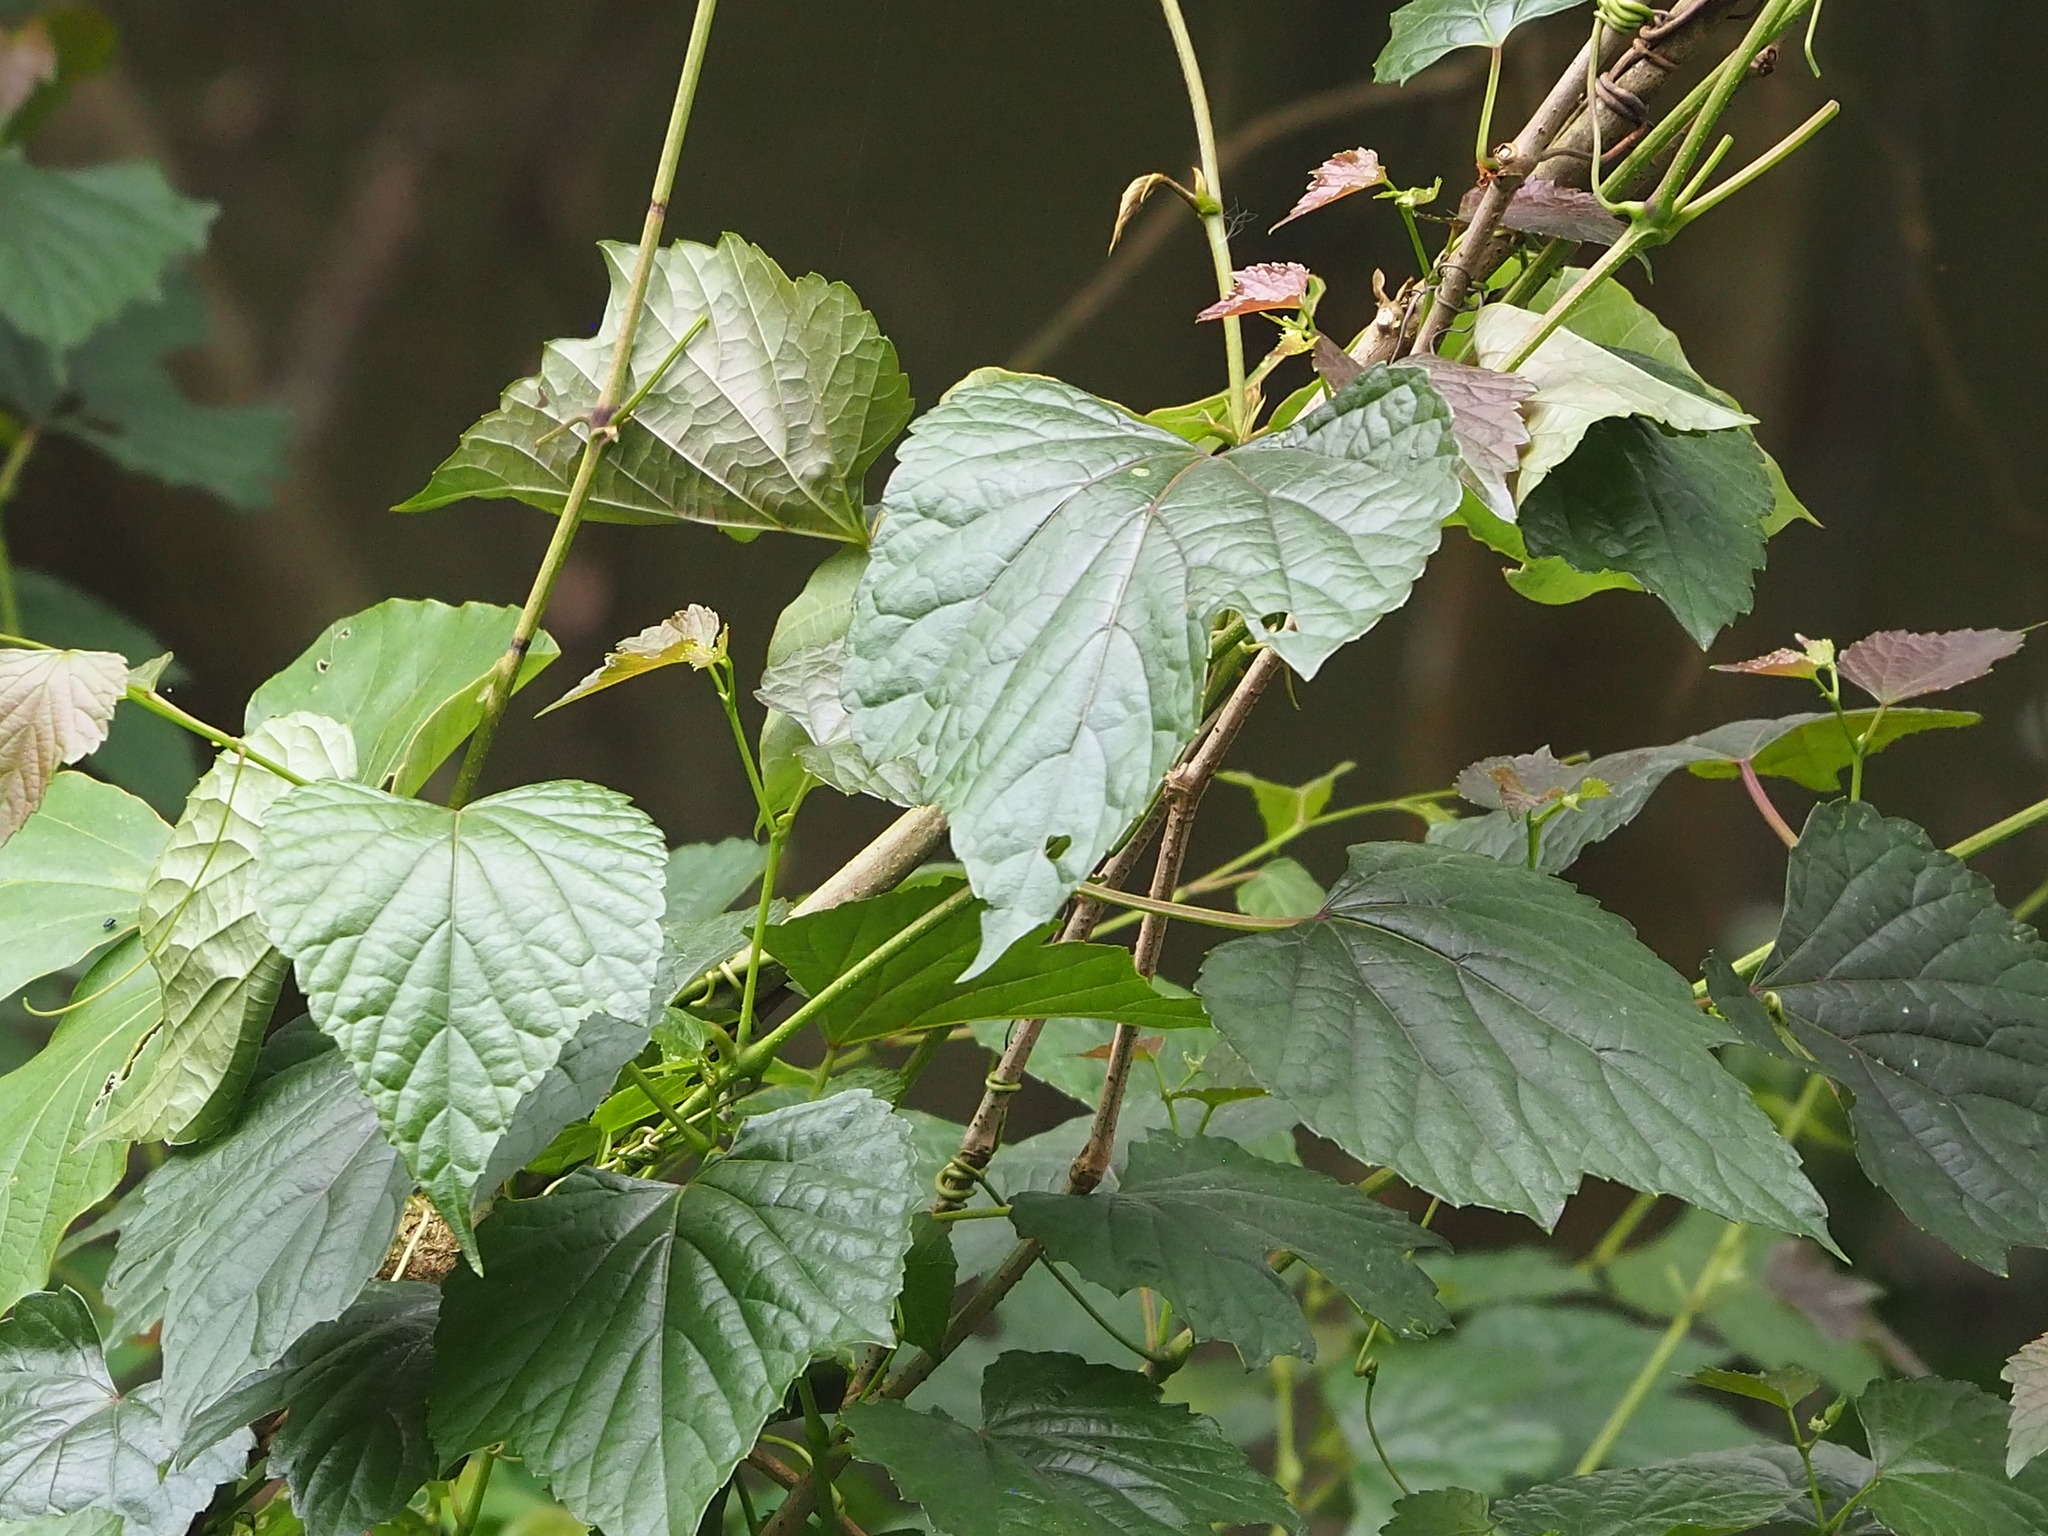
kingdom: Plantae
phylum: Tracheophyta
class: Magnoliopsida
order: Vitales
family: Vitaceae
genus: Ampelopsis
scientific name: Ampelopsis glandulosa
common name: Amur peppervine
